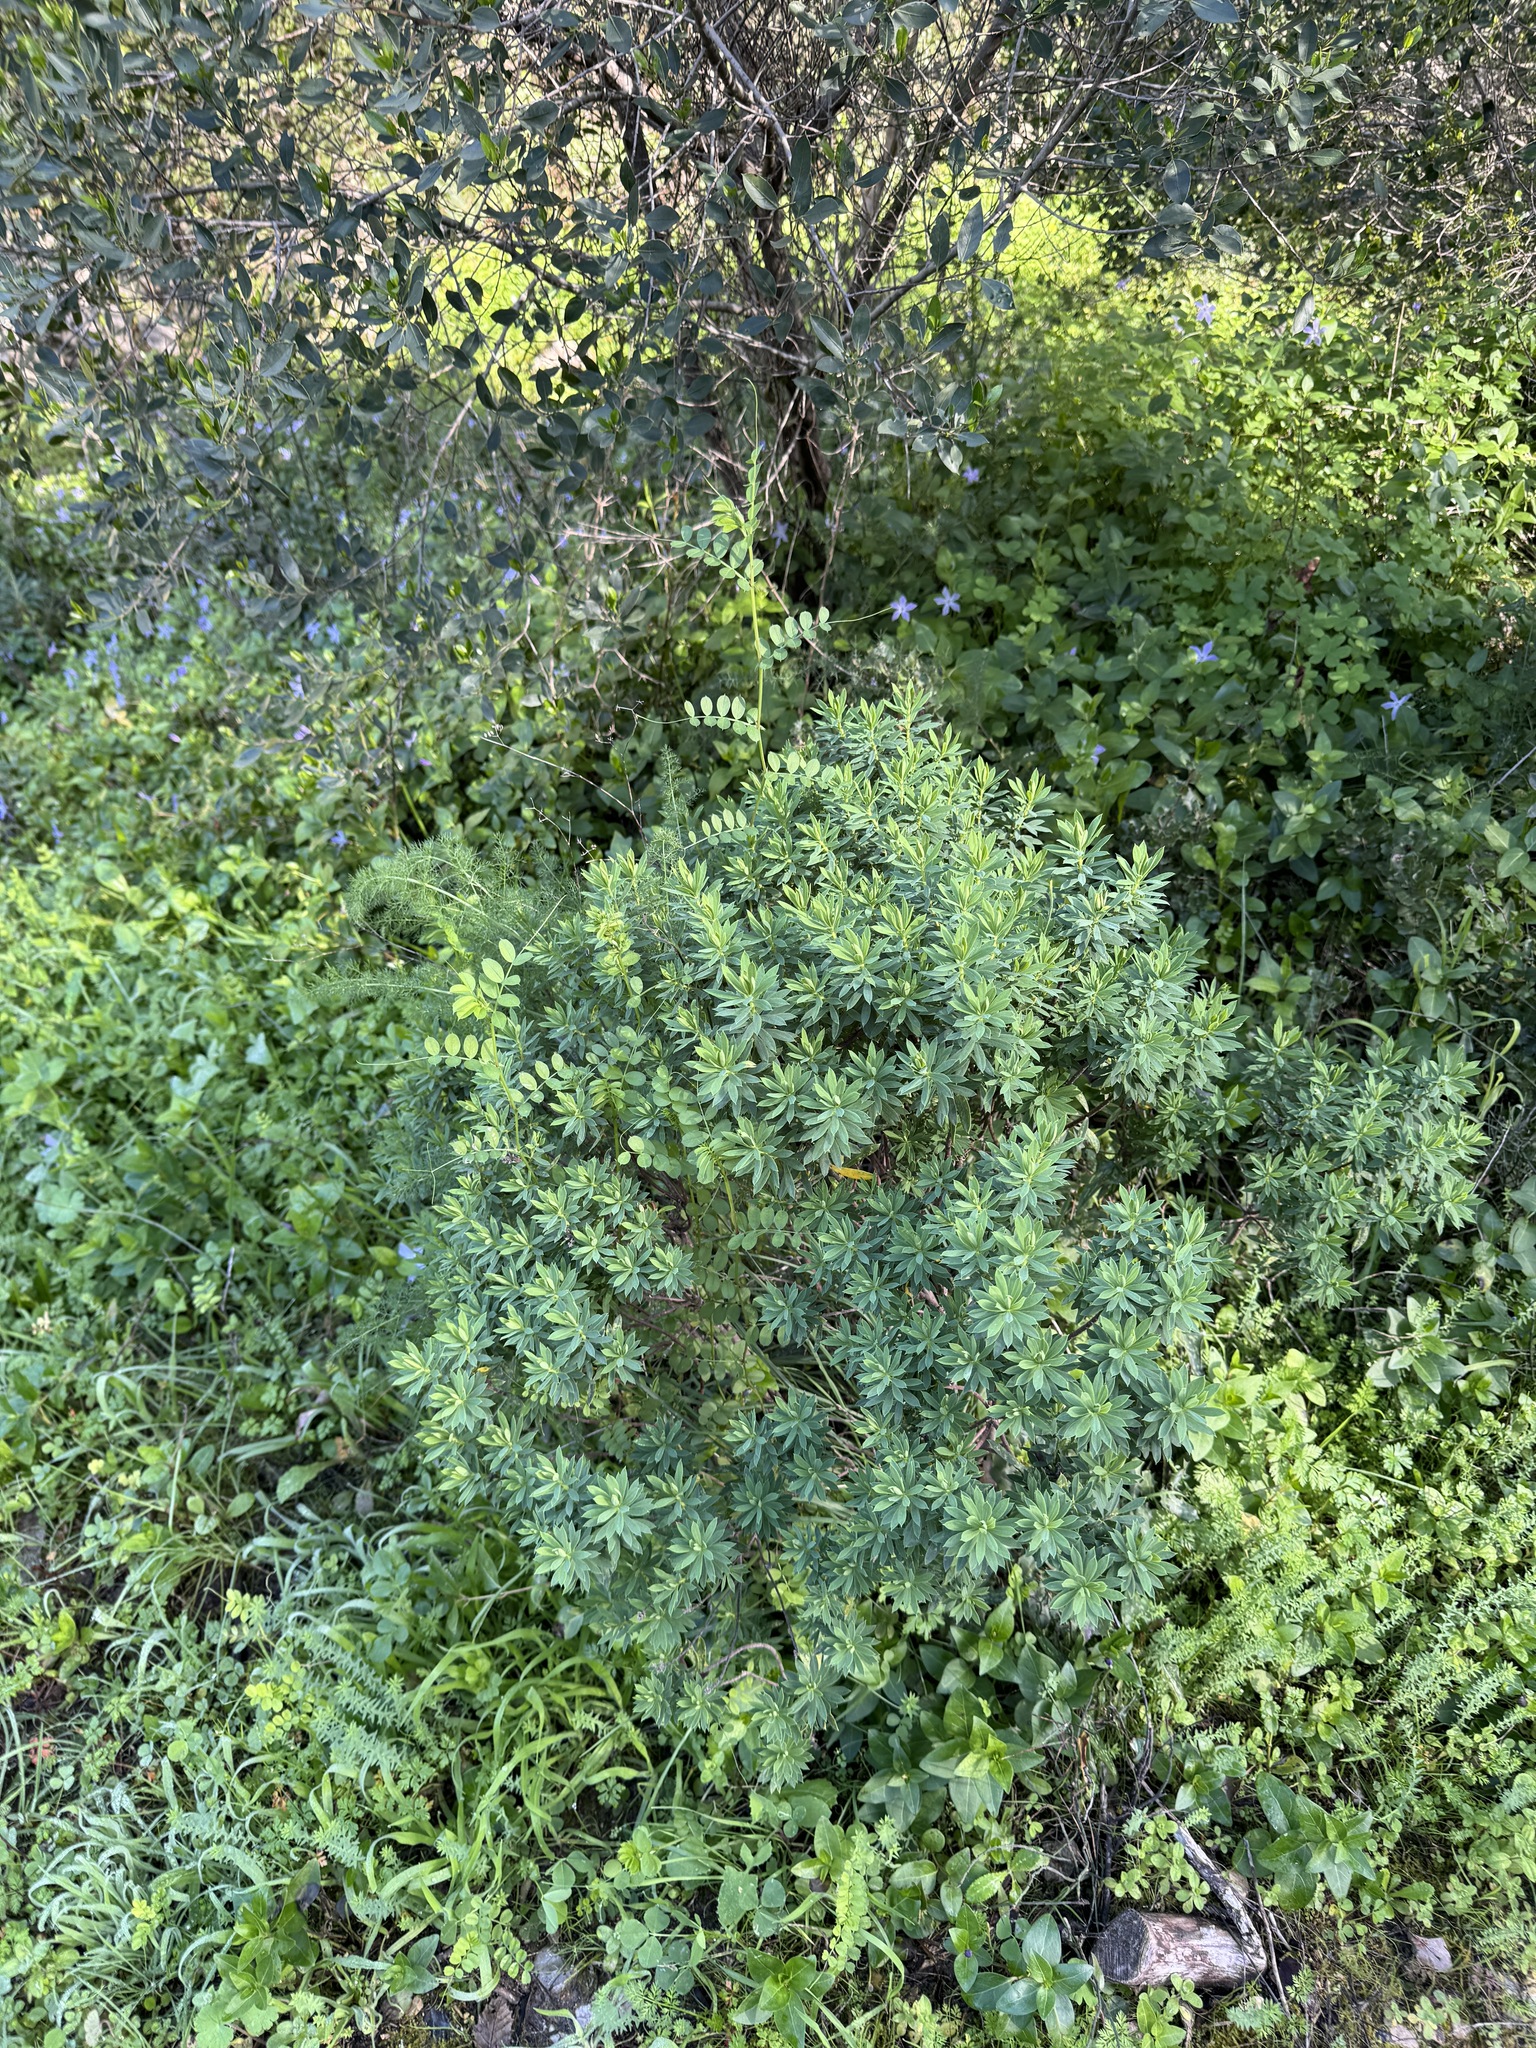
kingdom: Plantae
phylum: Tracheophyta
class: Magnoliopsida
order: Malvales
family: Thymelaeaceae
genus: Daphne
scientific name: Daphne gnidium
